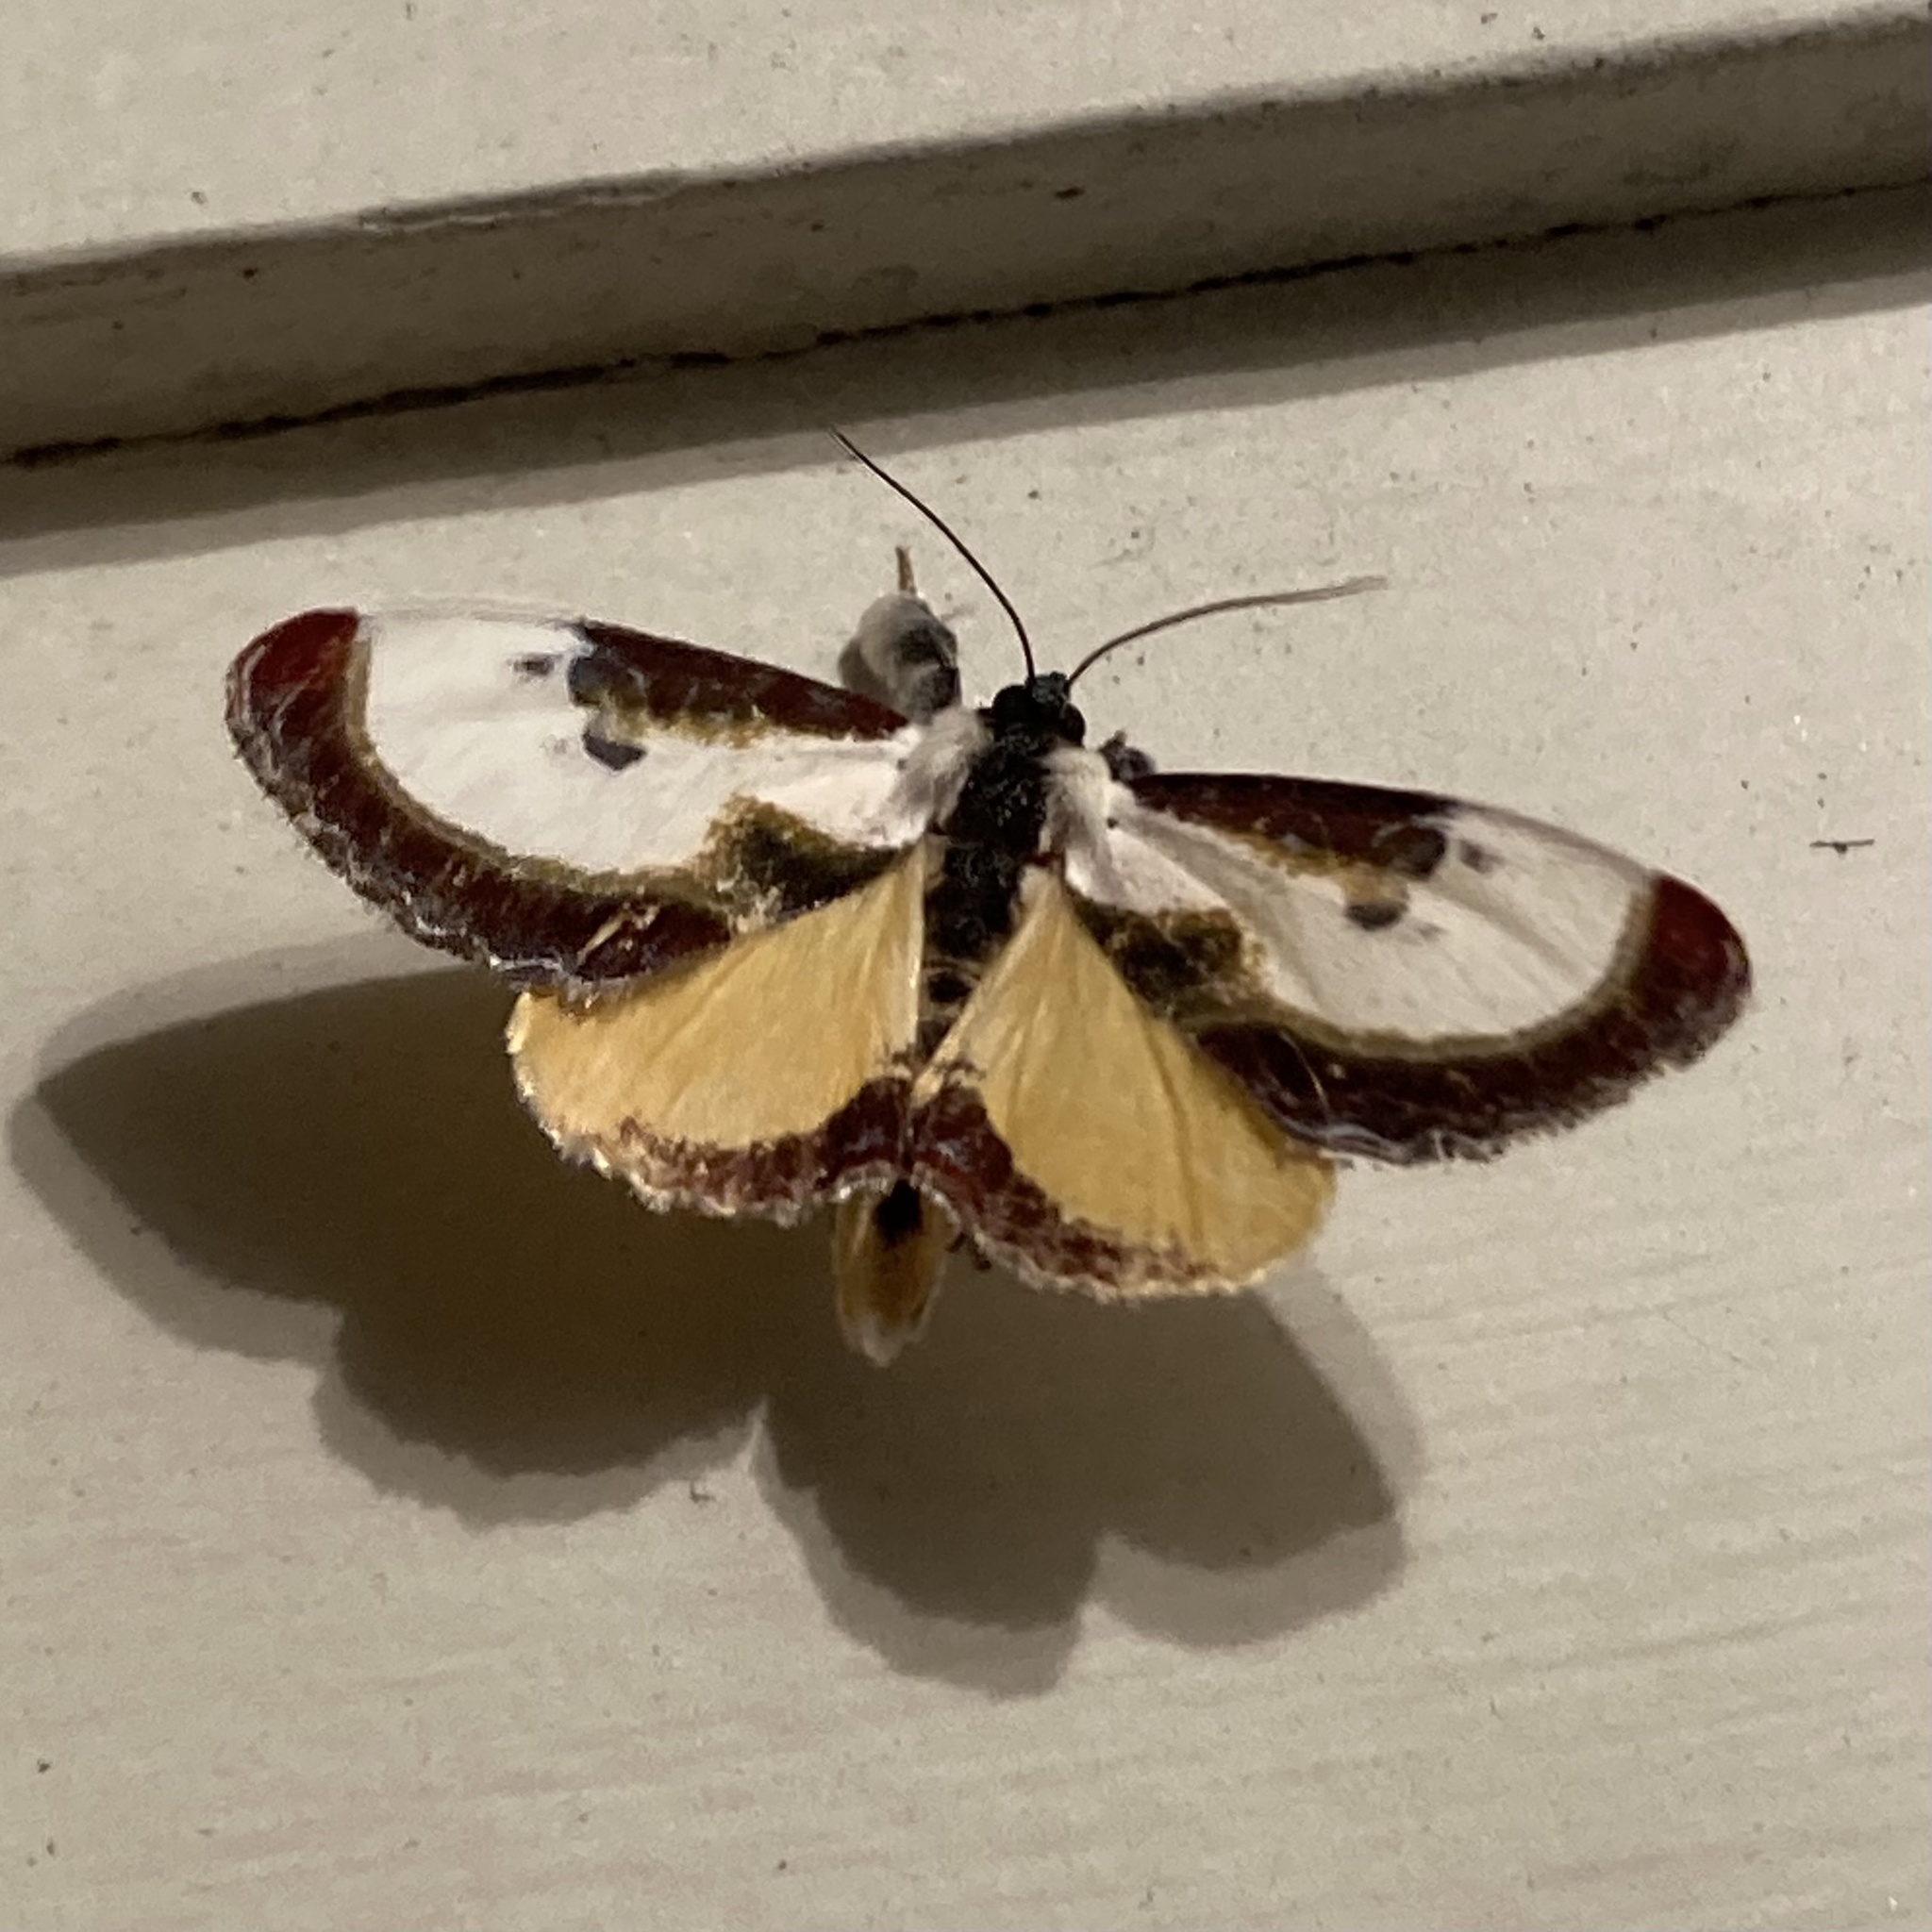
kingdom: Animalia
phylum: Arthropoda
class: Insecta
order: Lepidoptera
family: Noctuidae
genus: Eudryas
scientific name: Eudryas grata
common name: Beautiful wood-nymph
